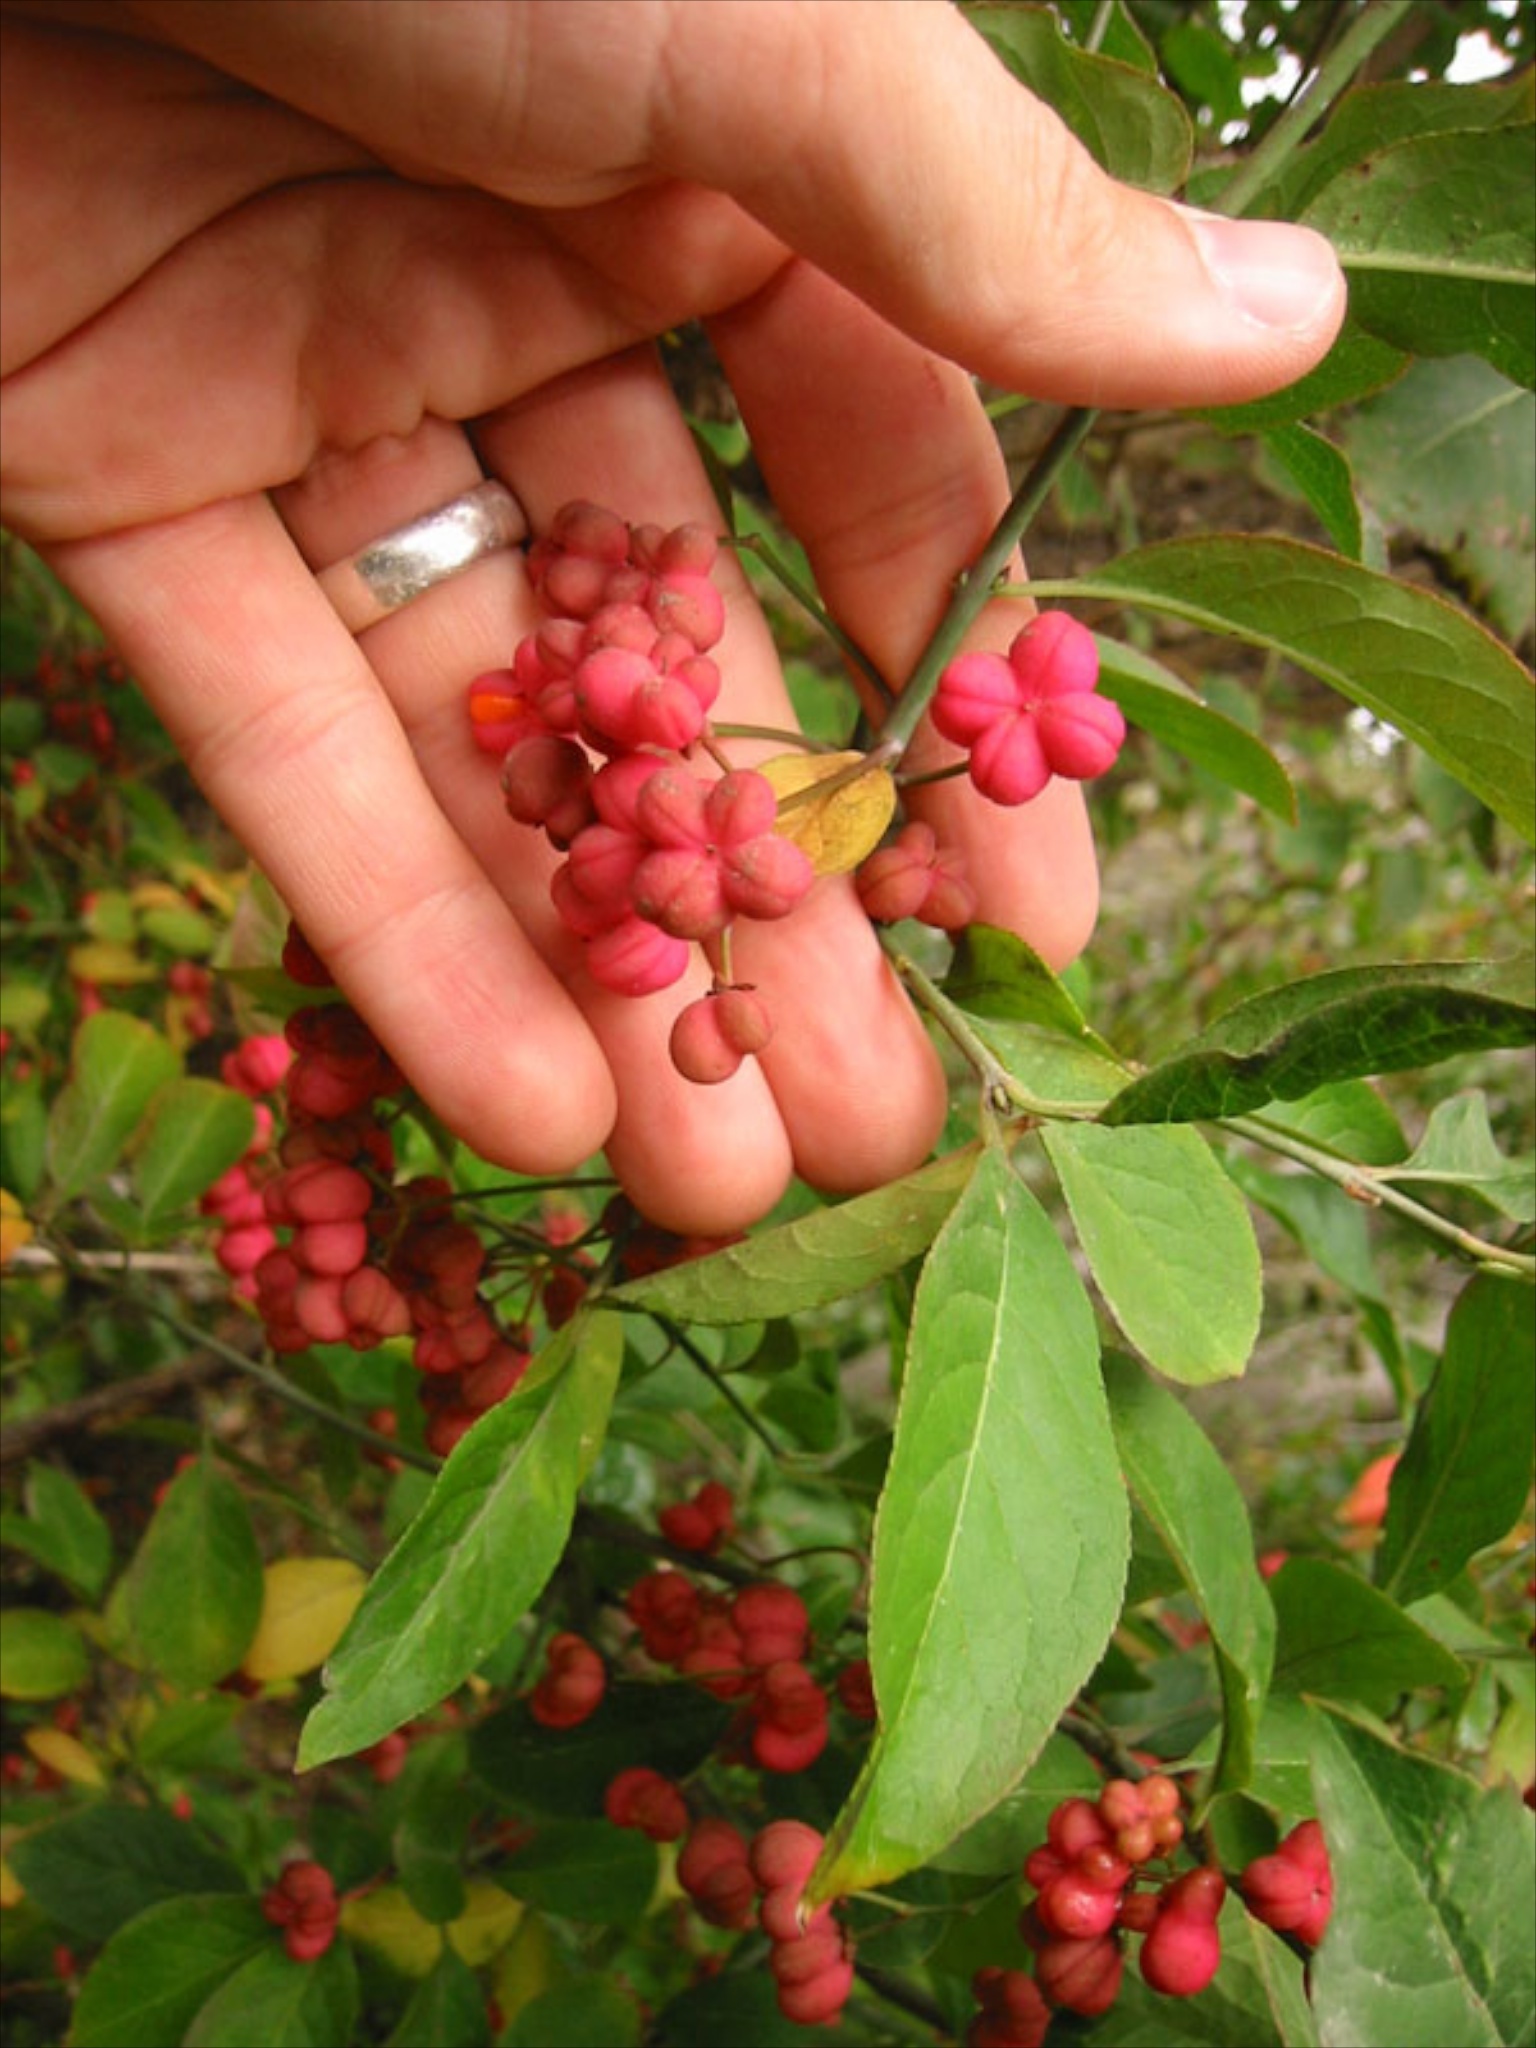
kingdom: Plantae
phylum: Tracheophyta
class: Magnoliopsida
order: Celastrales
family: Celastraceae
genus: Euonymus
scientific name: Euonymus europaeus
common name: Spindle
